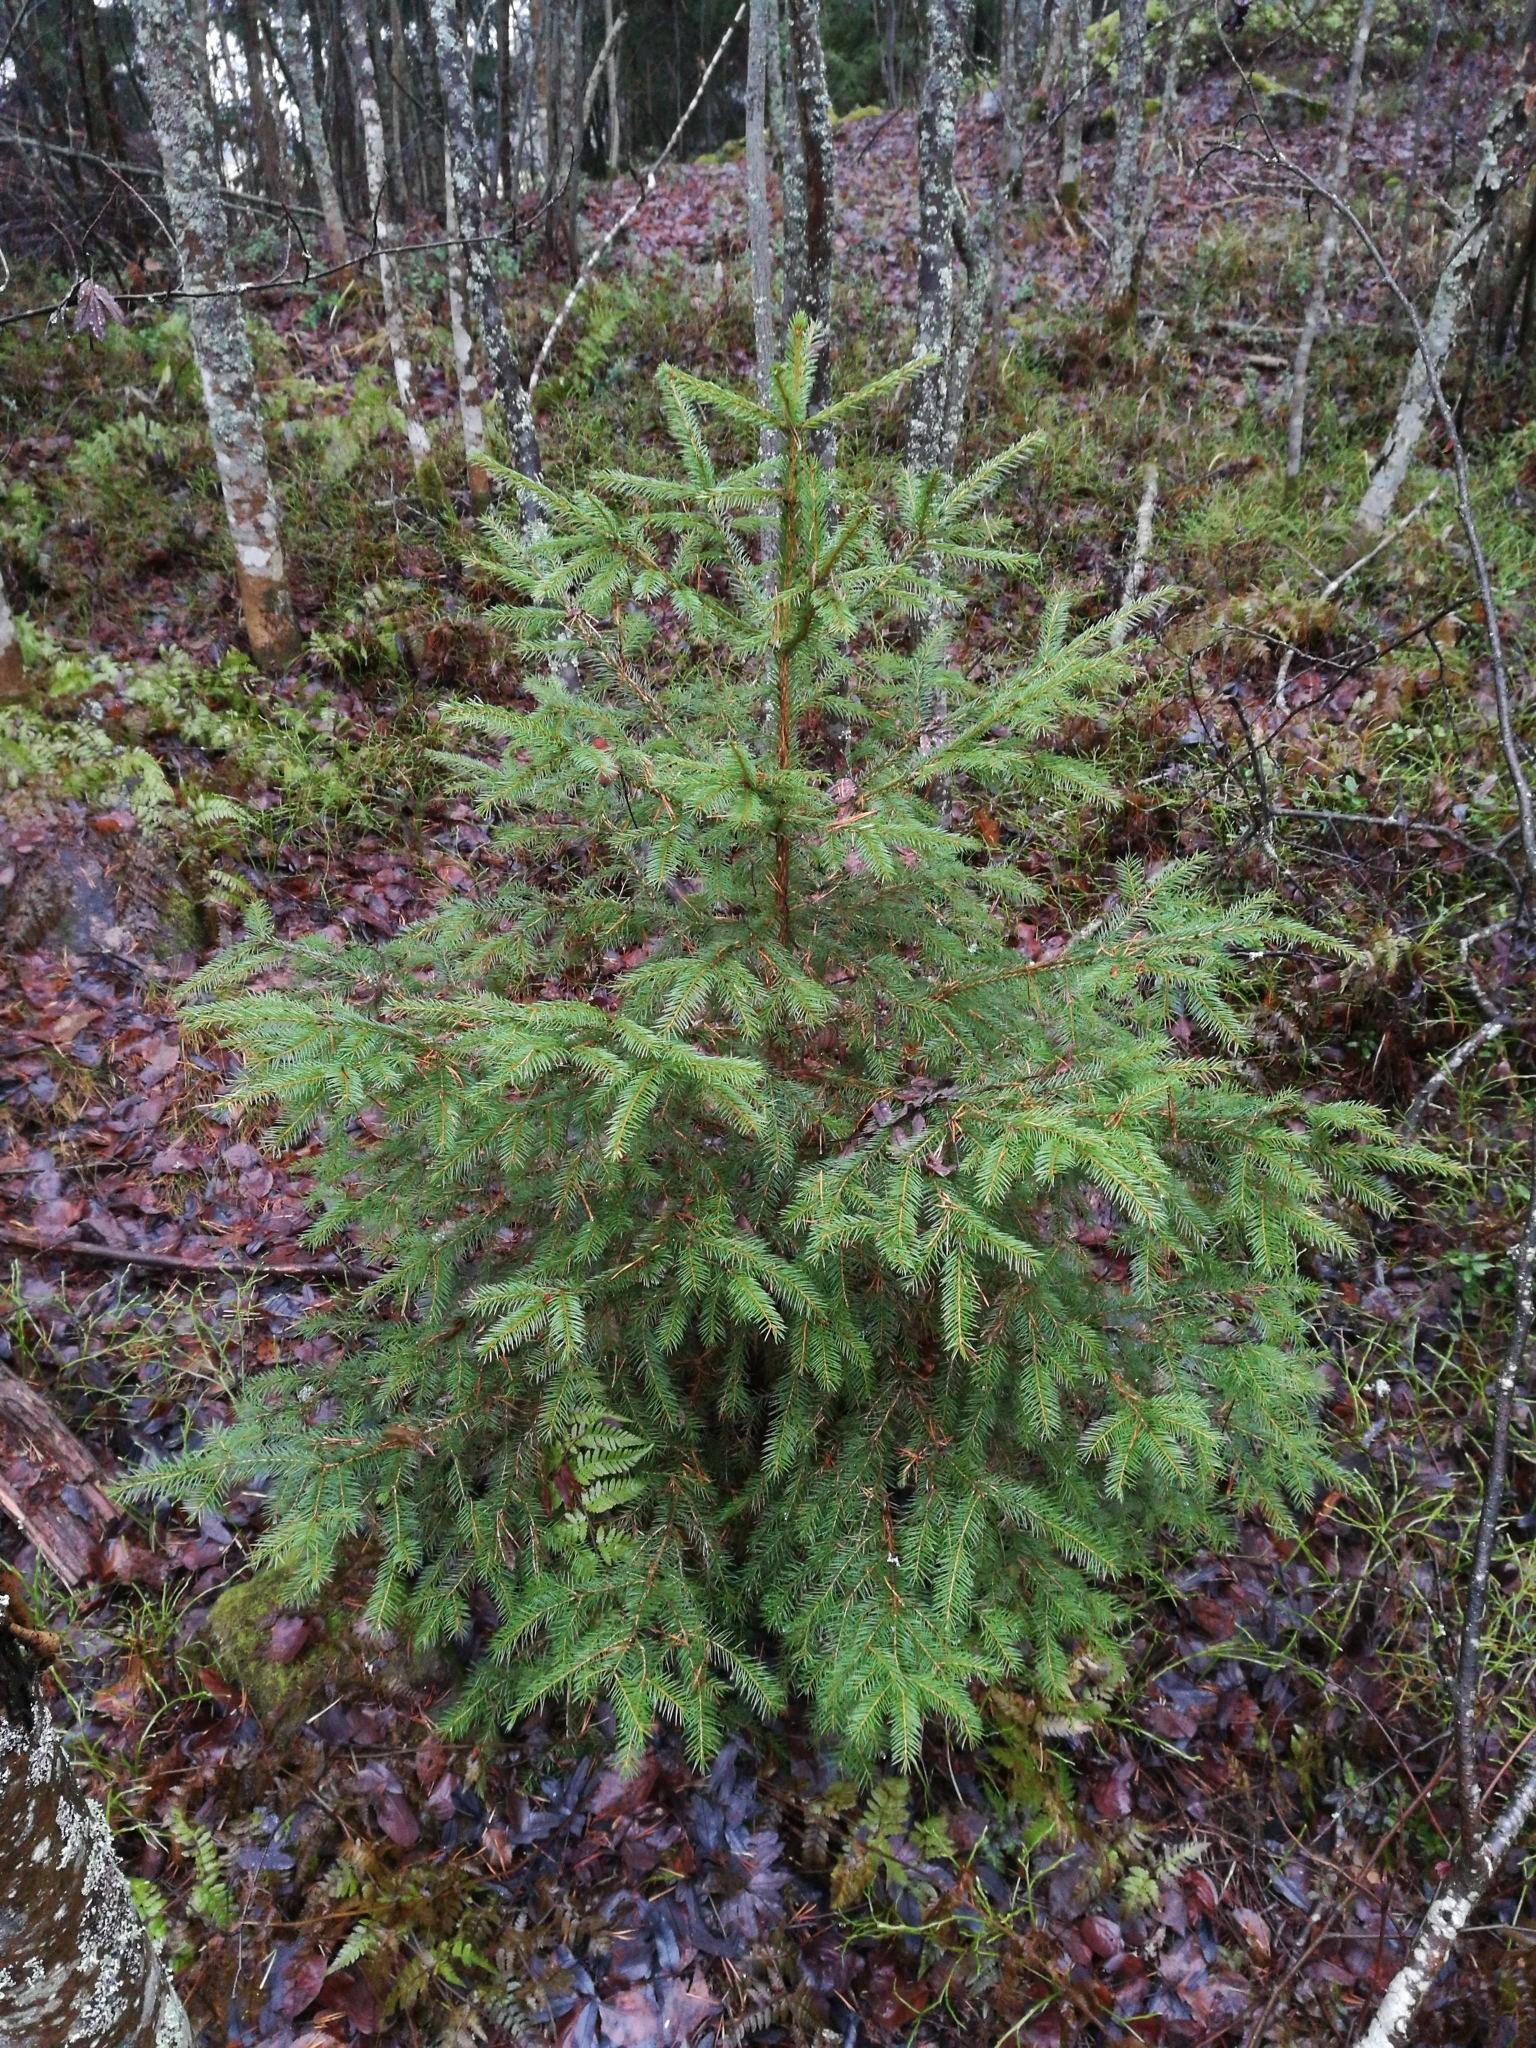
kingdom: Plantae
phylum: Tracheophyta
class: Pinopsida
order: Pinales
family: Pinaceae
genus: Picea
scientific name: Picea abies
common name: Norway spruce
